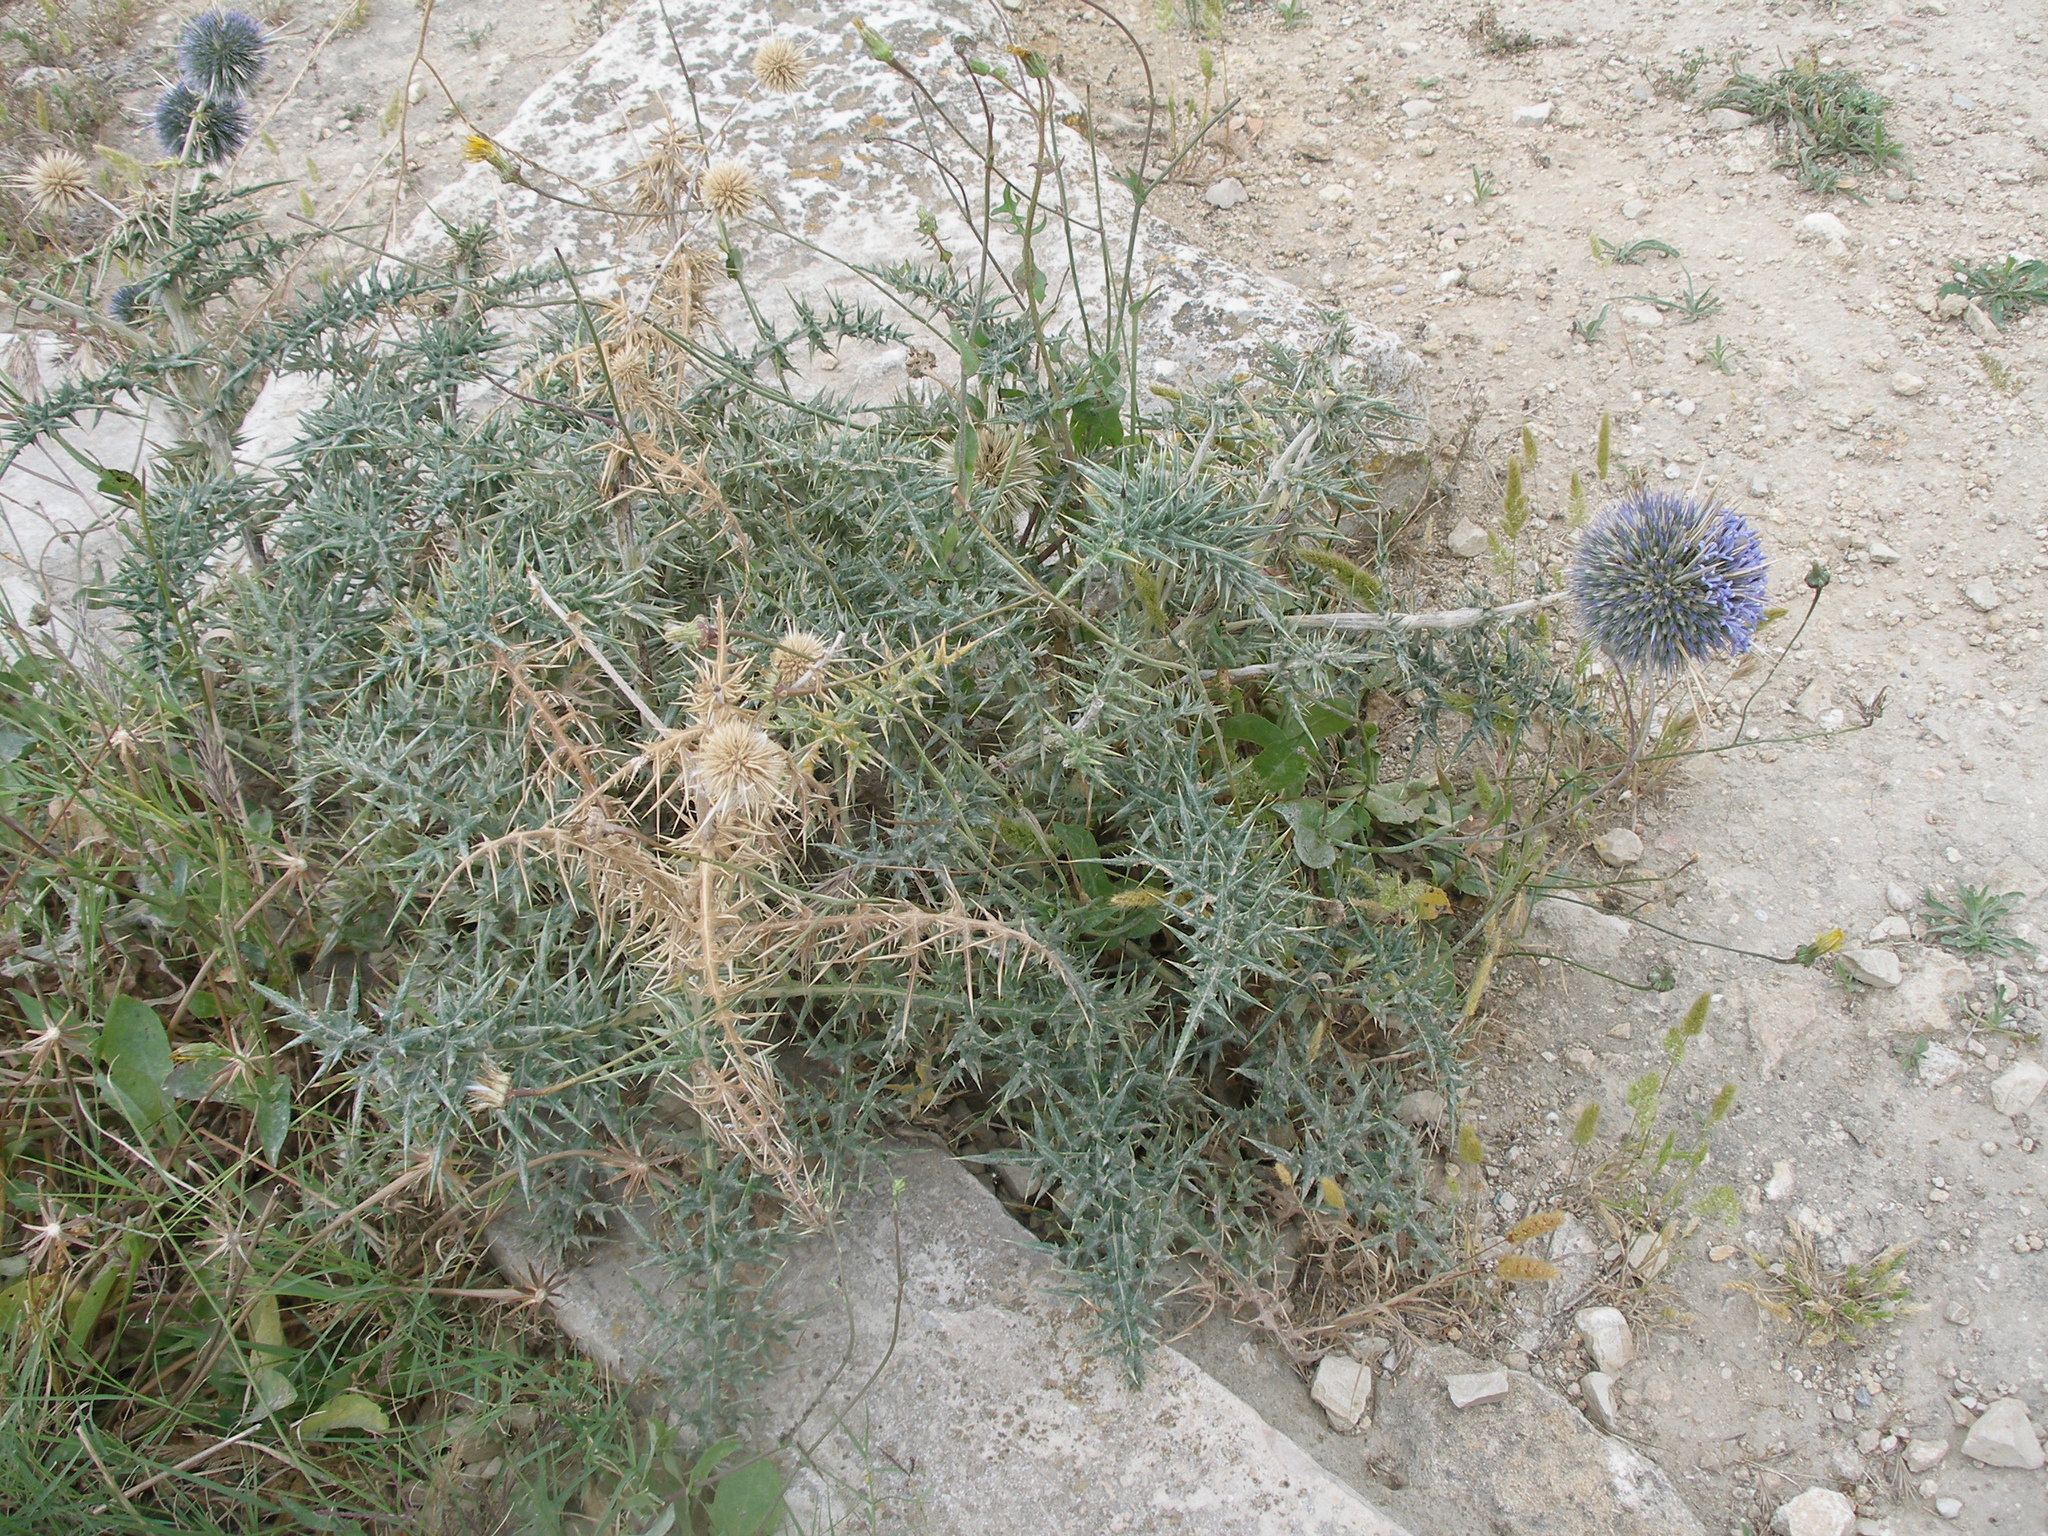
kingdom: Plantae
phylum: Tracheophyta
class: Magnoliopsida
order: Asterales
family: Asteraceae
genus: Echinops
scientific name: Echinops spinosissimus
